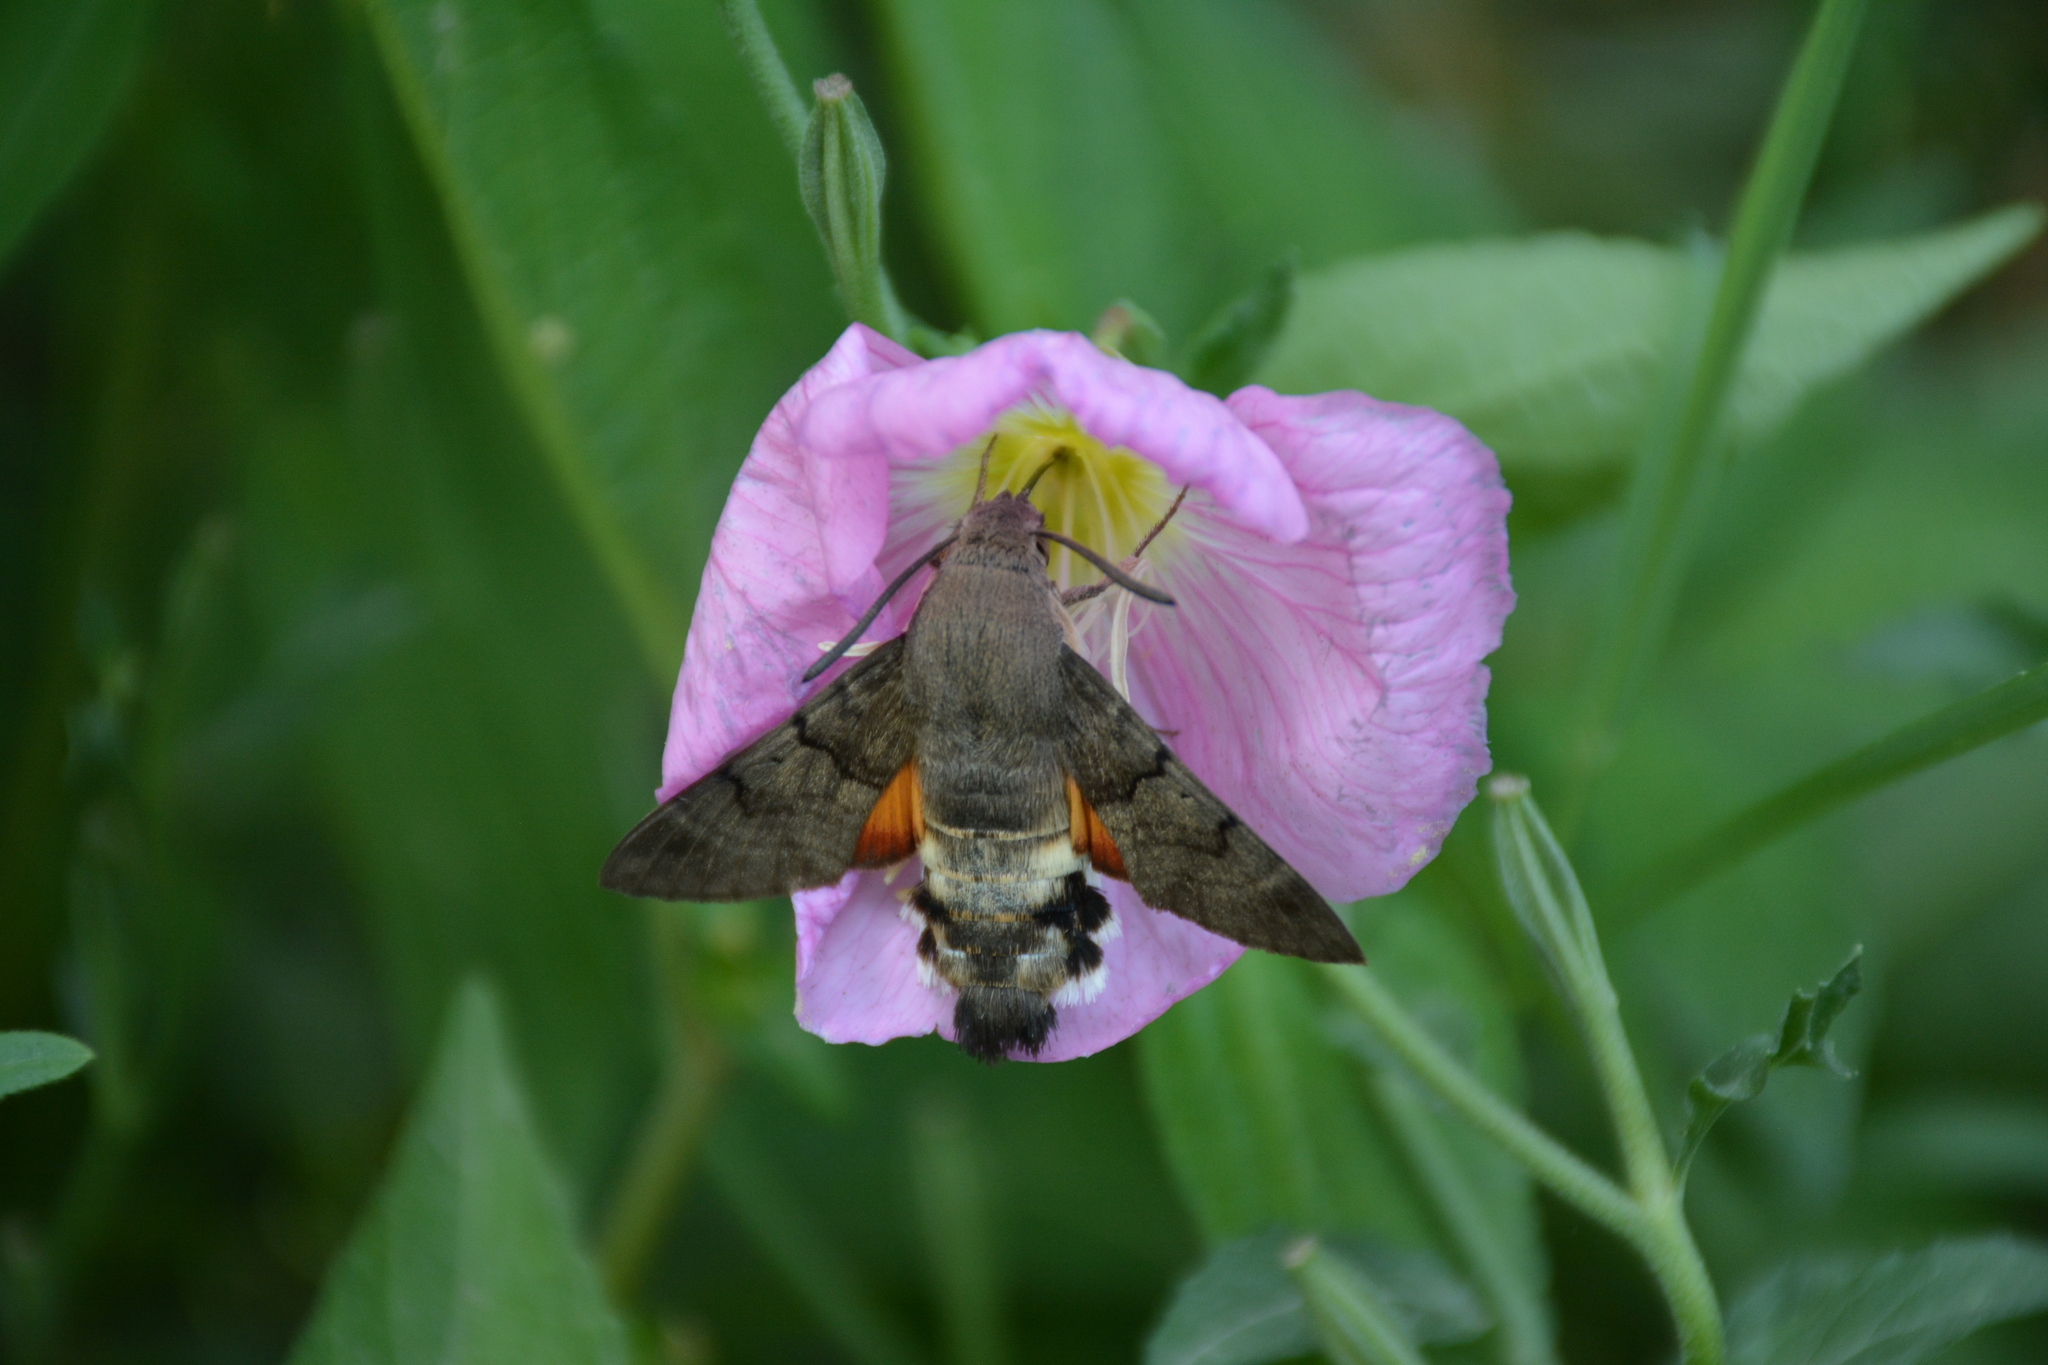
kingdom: Animalia
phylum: Arthropoda
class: Insecta
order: Lepidoptera
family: Sphingidae
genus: Macroglossum
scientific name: Macroglossum stellatarum
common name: Humming-bird hawk-moth
